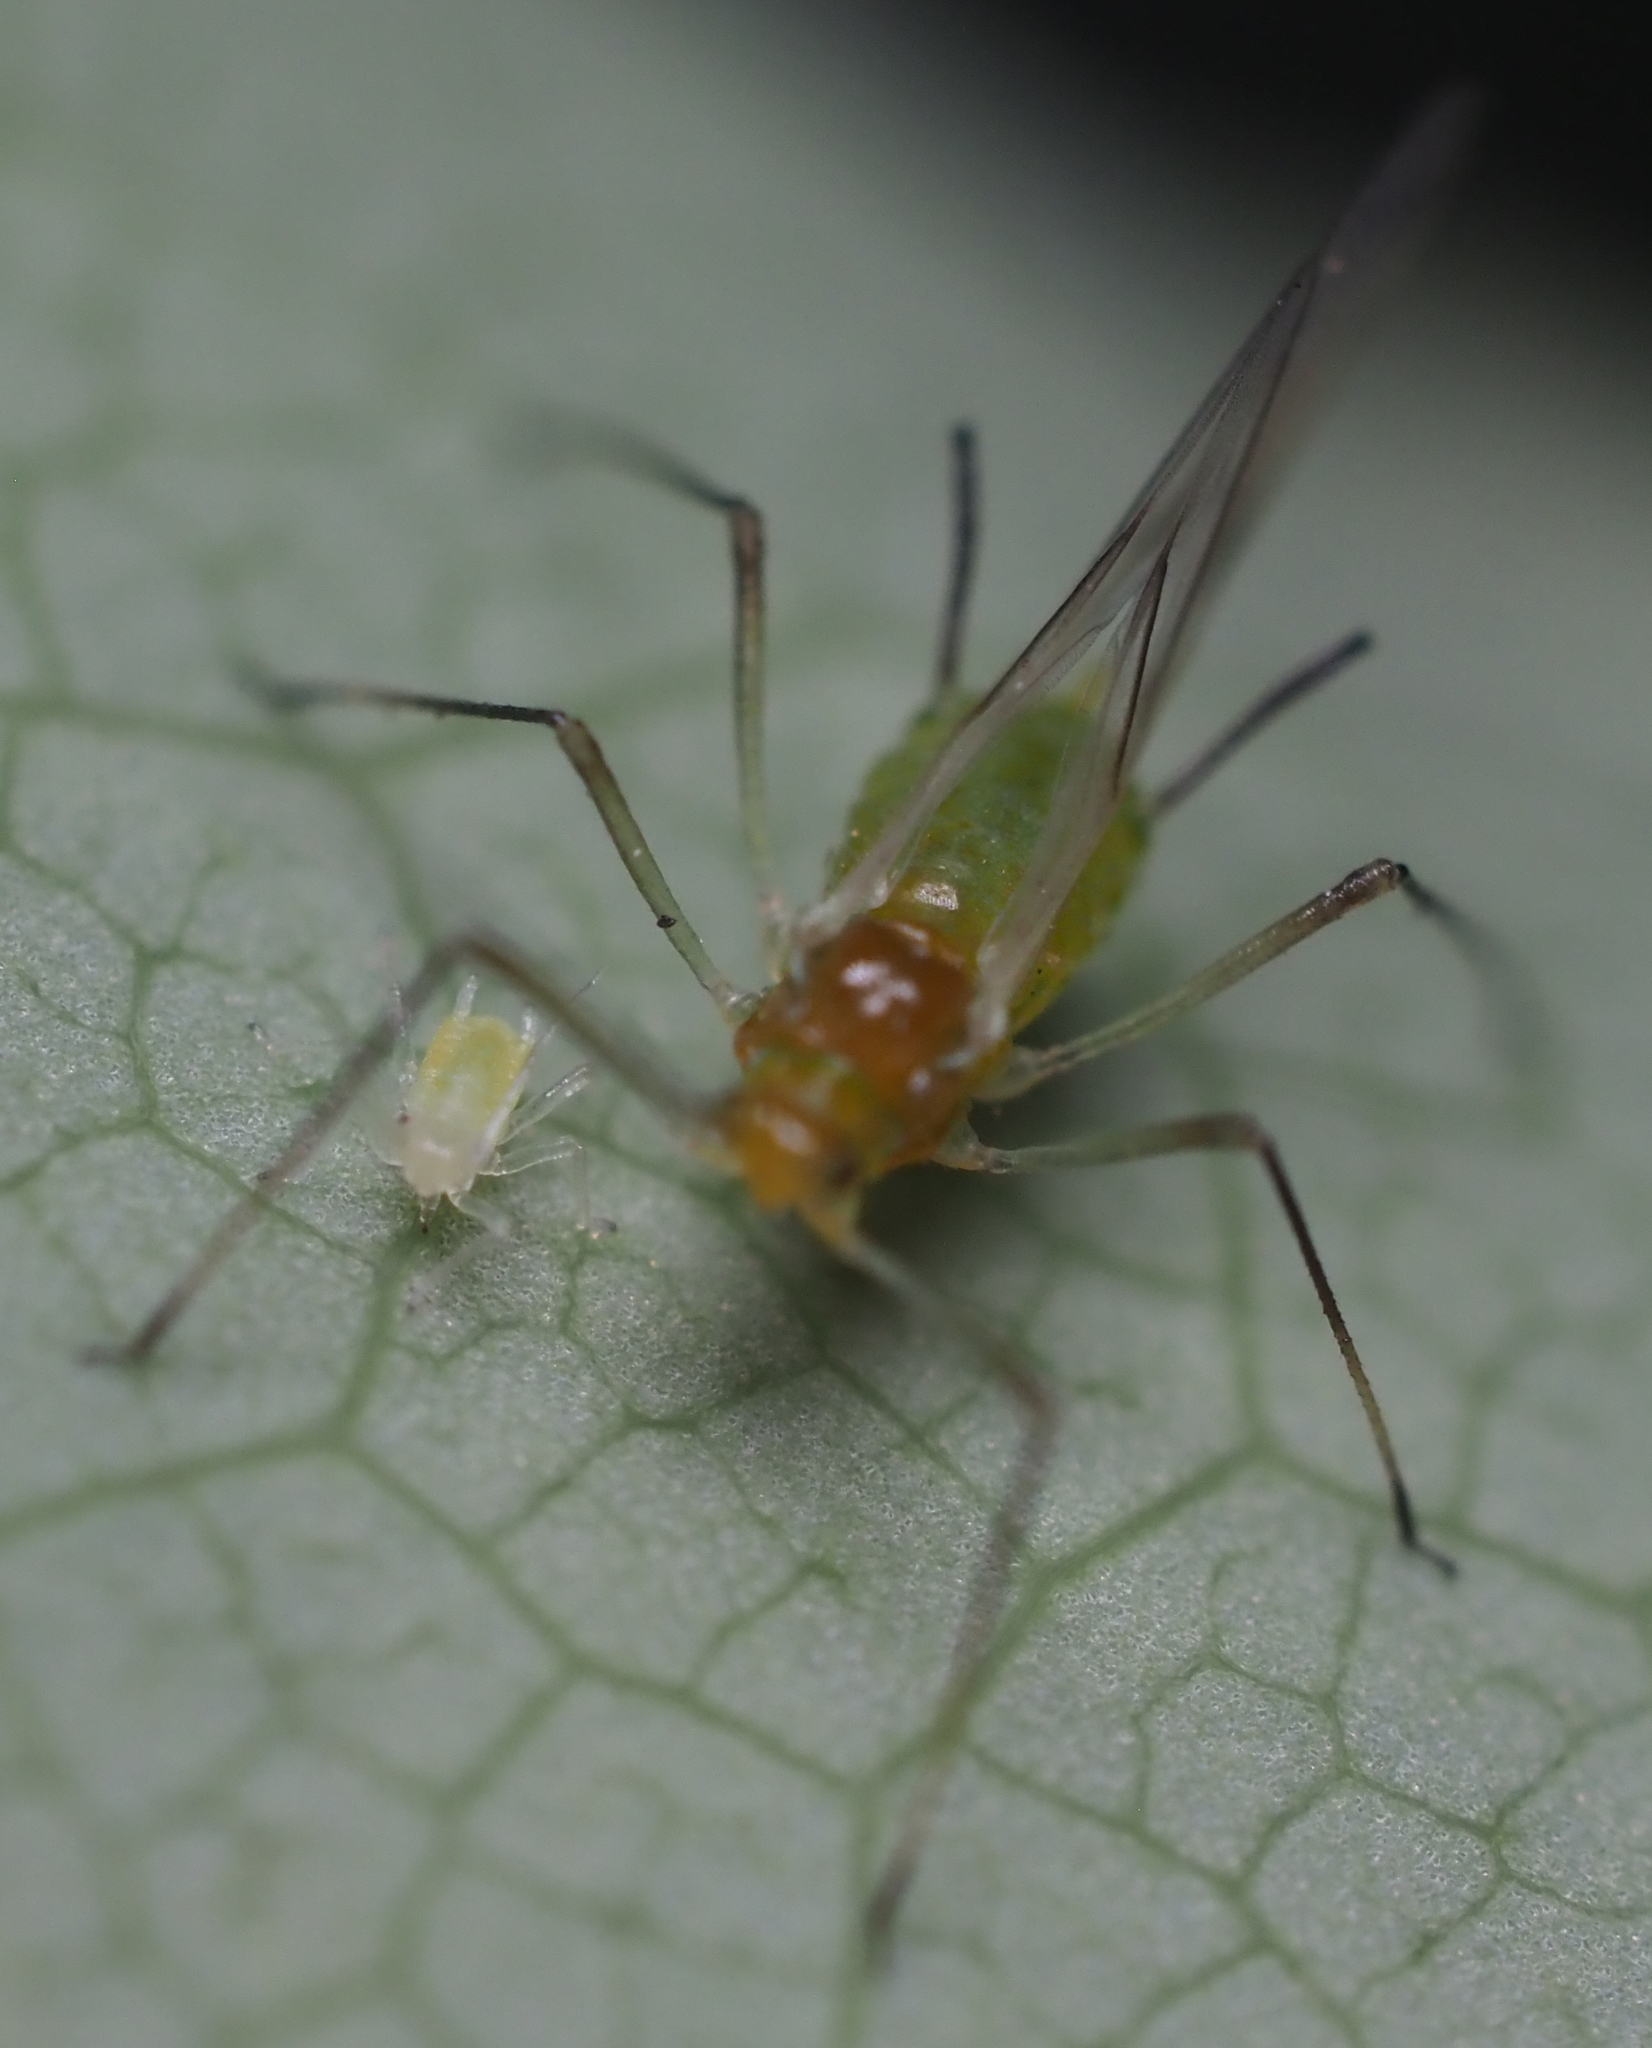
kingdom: Animalia
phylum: Arthropoda
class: Insecta
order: Hemiptera
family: Aphididae
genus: Illinoia
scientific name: Illinoia liriodendri
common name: Tuliptree aphid
